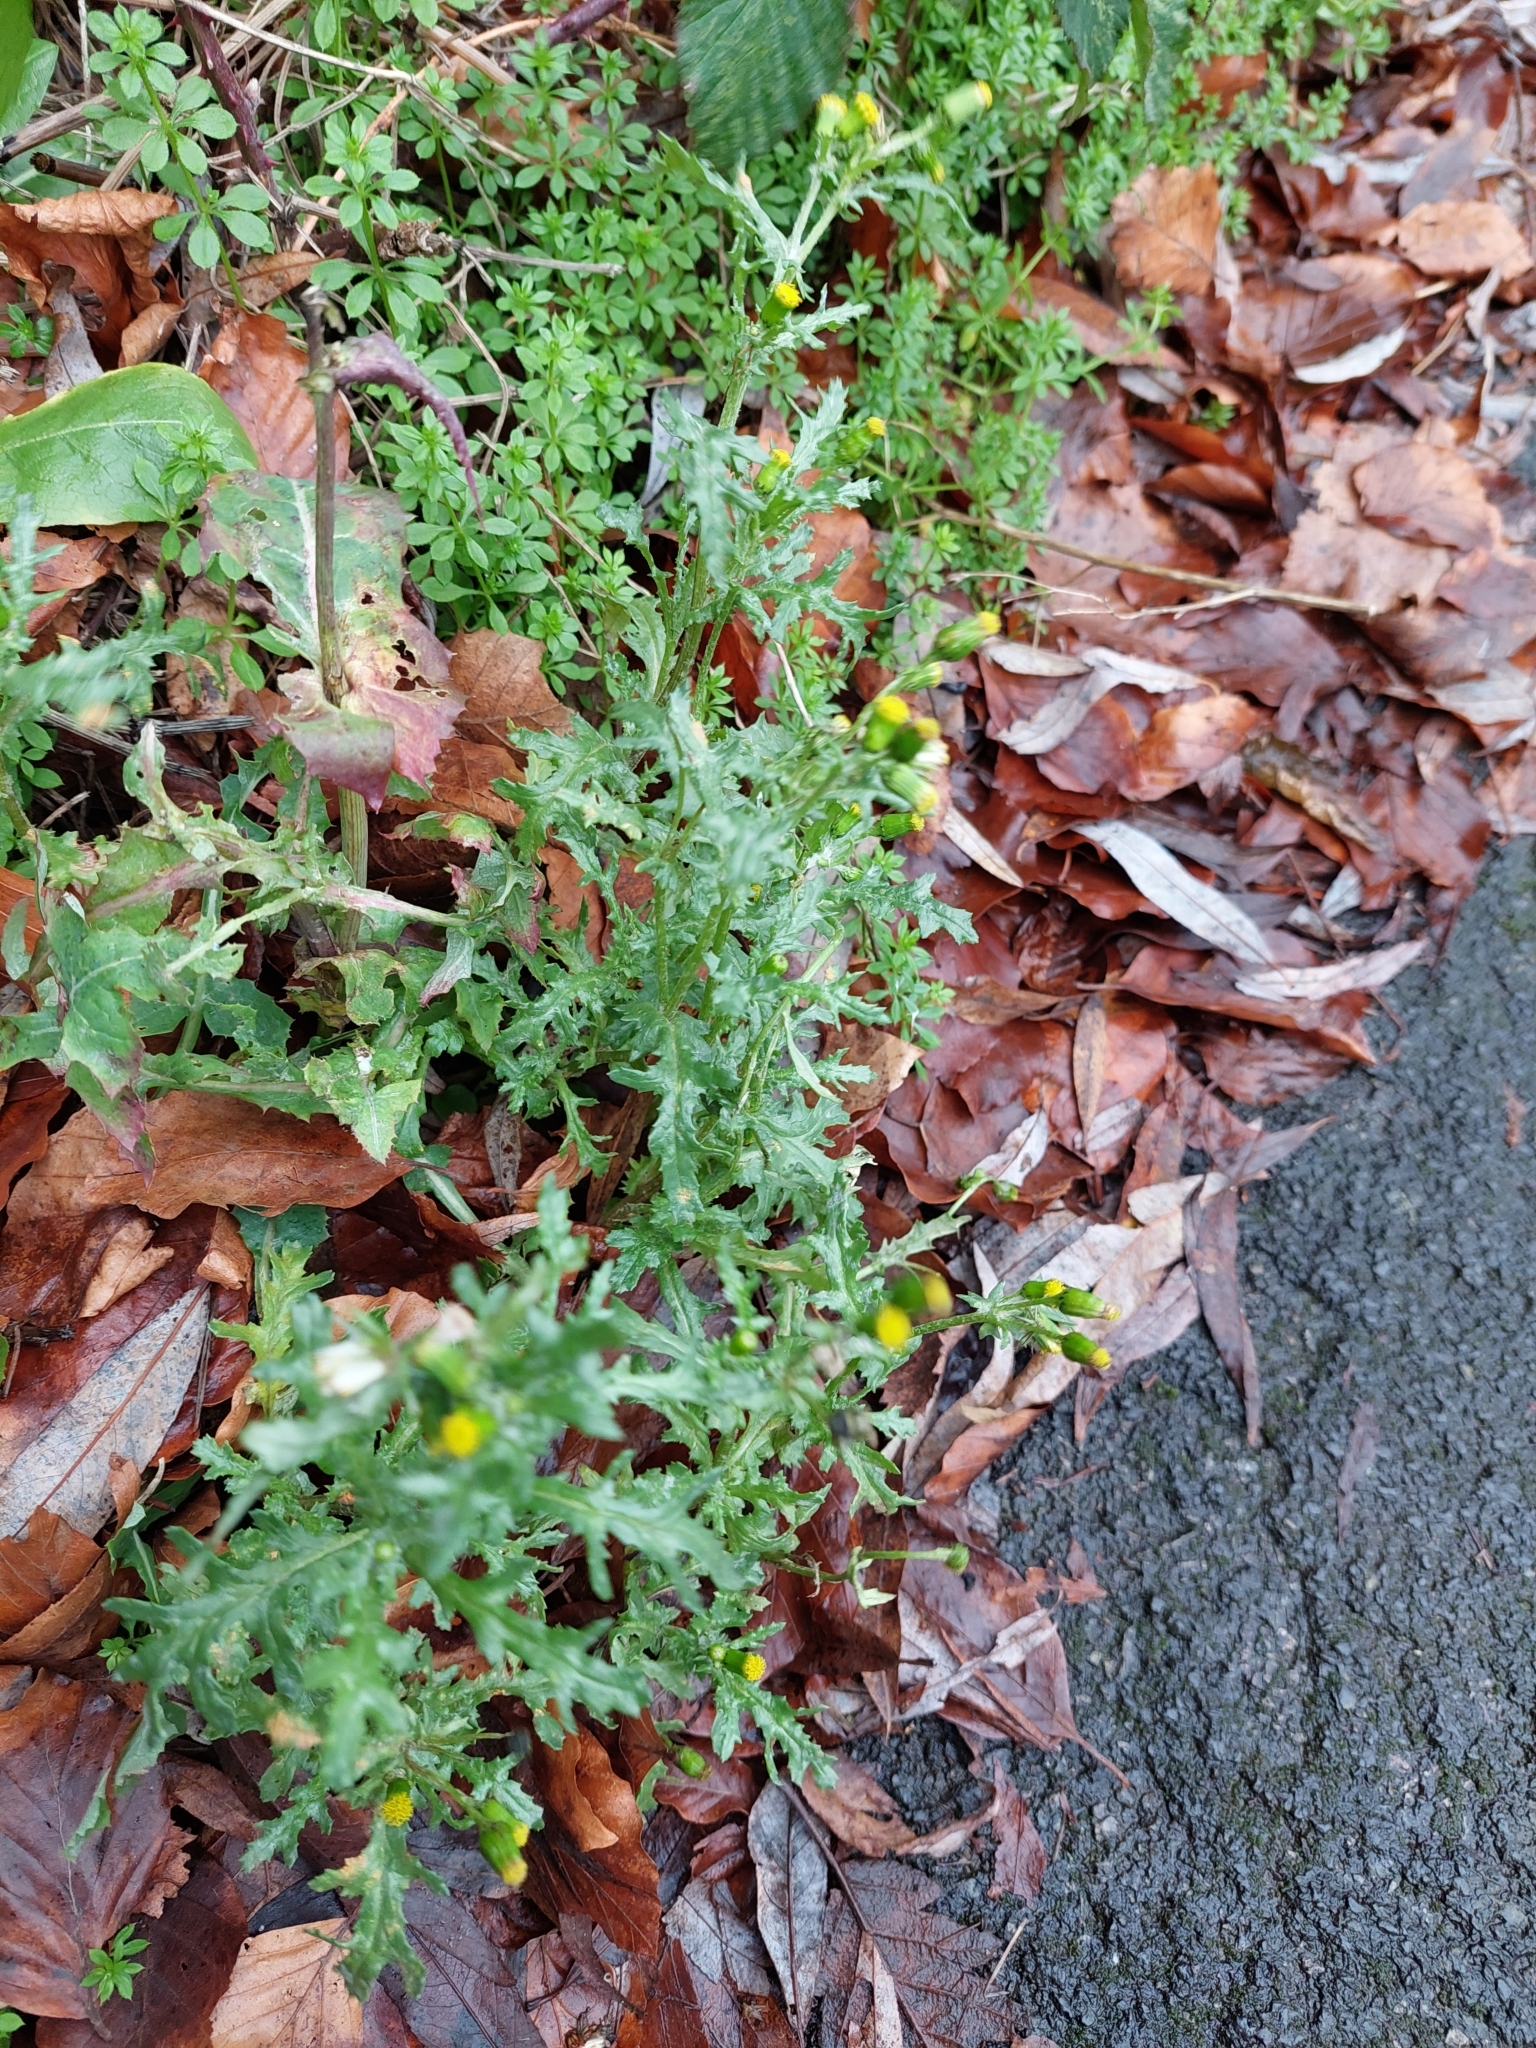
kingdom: Plantae
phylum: Tracheophyta
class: Magnoliopsida
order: Asterales
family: Asteraceae
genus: Senecio
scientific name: Senecio vulgaris
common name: Old-man-in-the-spring
